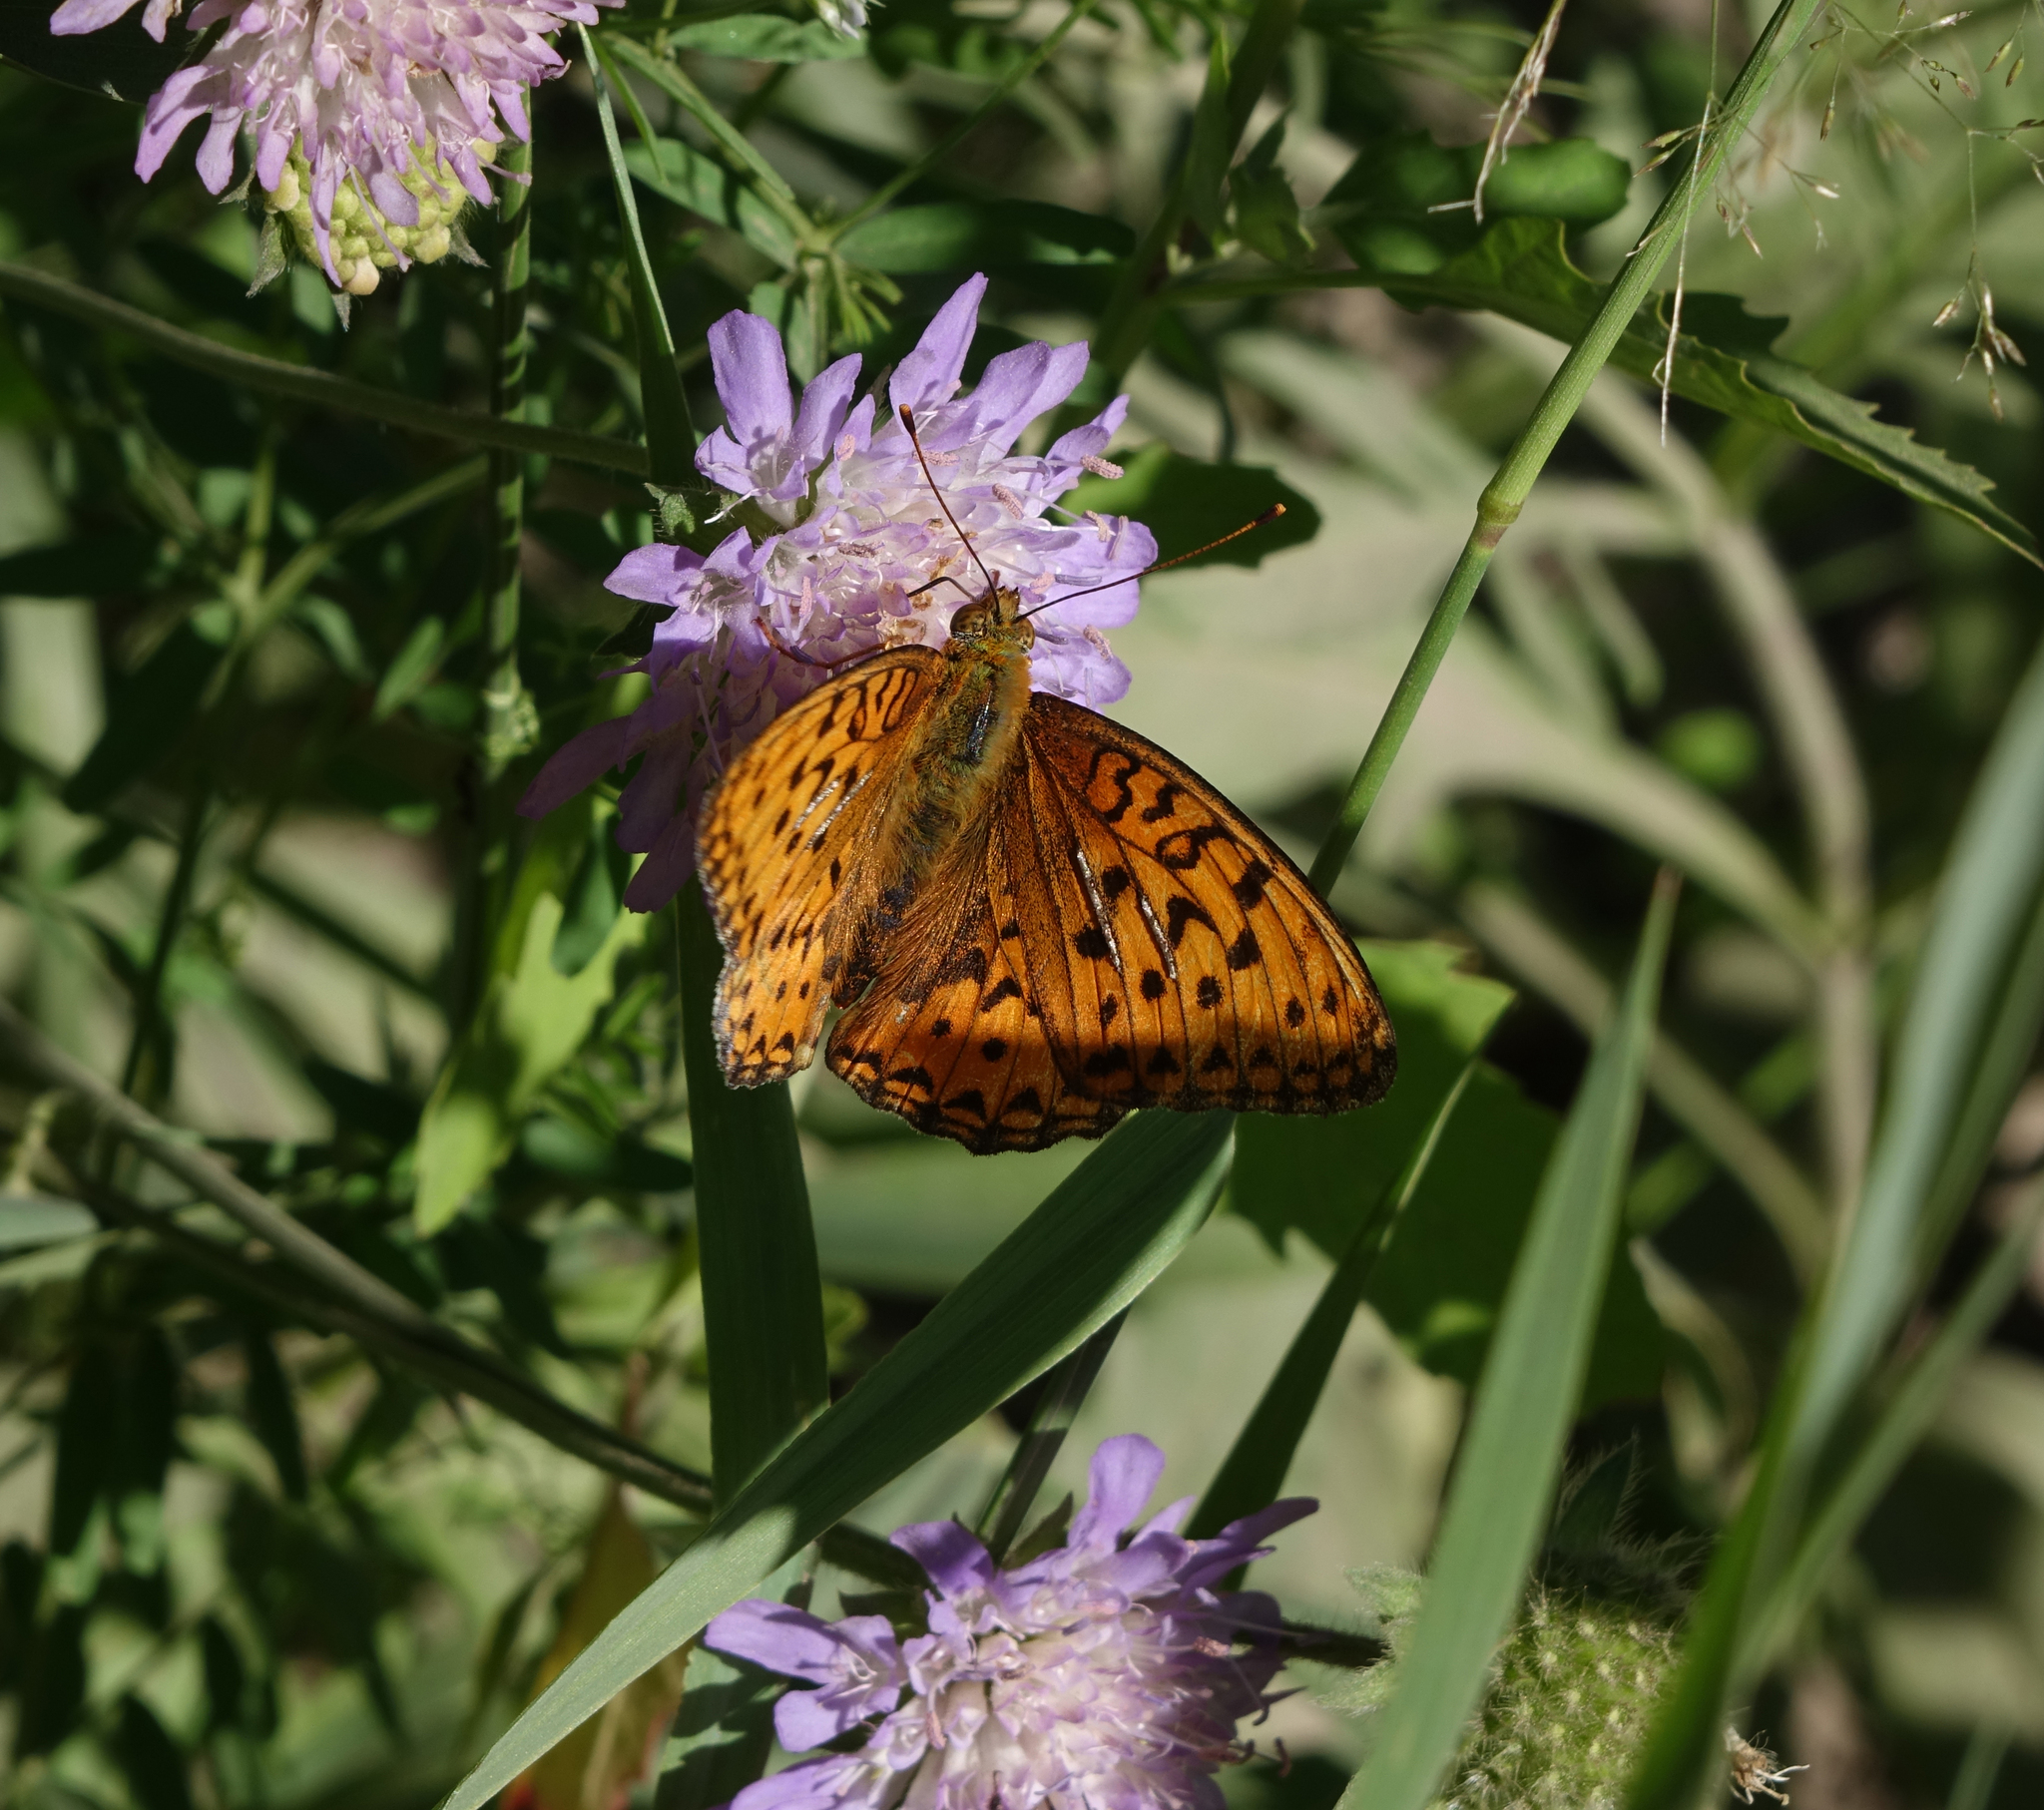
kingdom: Animalia
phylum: Arthropoda
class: Insecta
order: Lepidoptera
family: Nymphalidae
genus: Fabriciana
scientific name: Fabriciana adippe
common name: High brown fritillary
